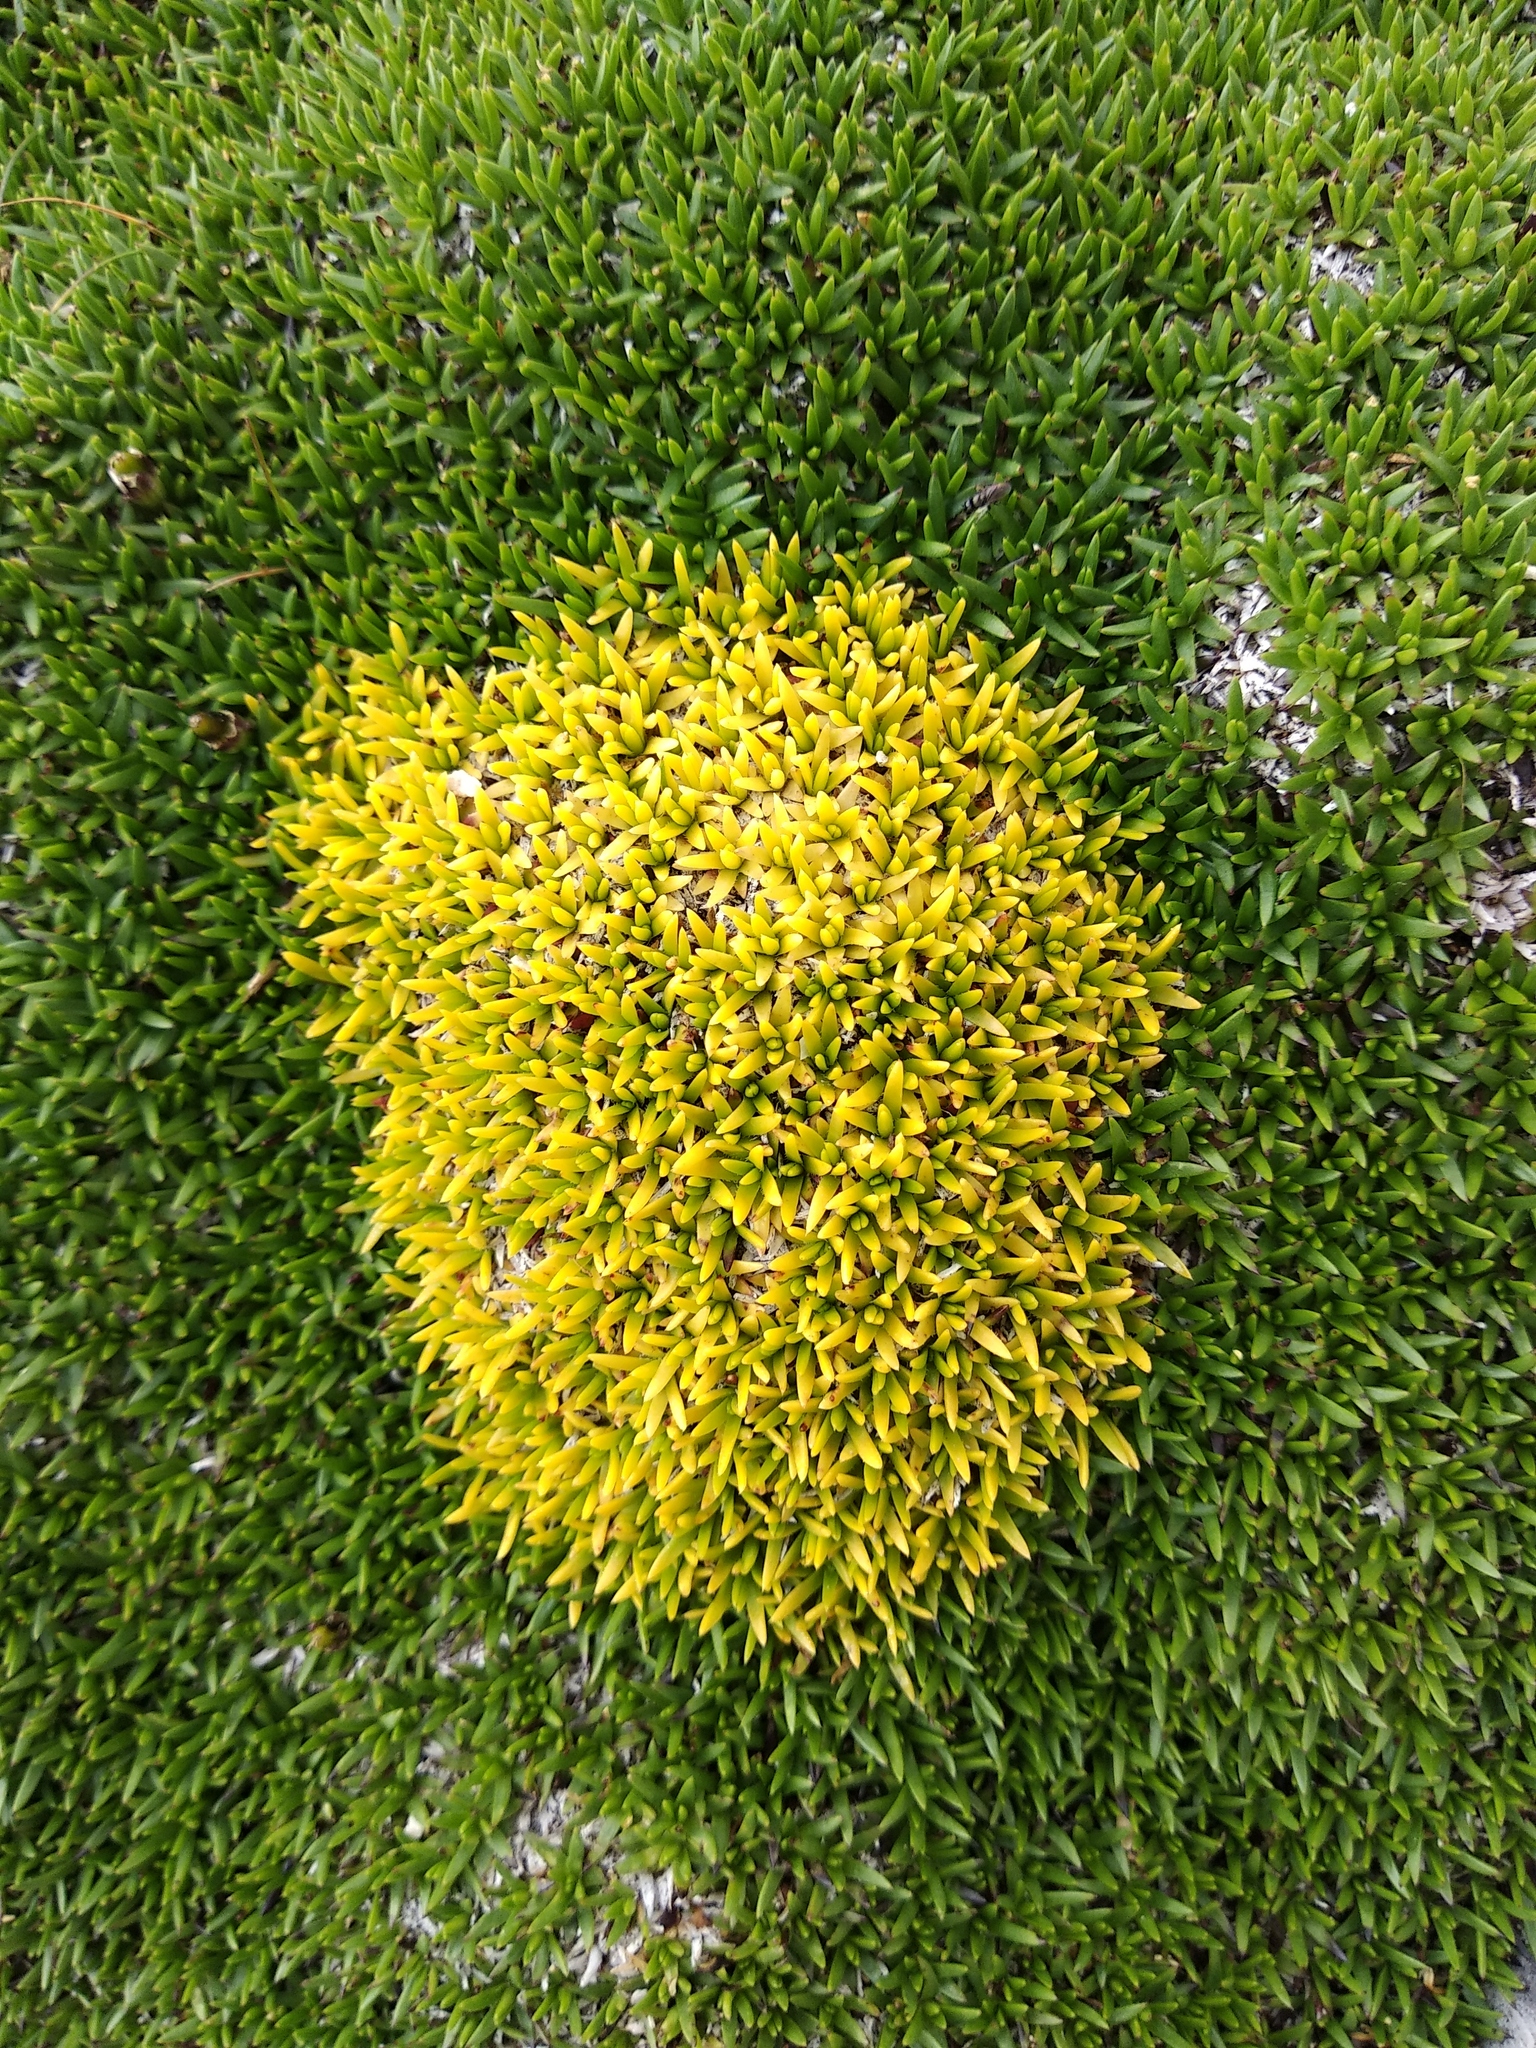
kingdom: Plantae
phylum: Tracheophyta
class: Magnoliopsida
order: Caryophyllales
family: Caryophyllaceae
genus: Silene
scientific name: Silene acaulis
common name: Moss campion
